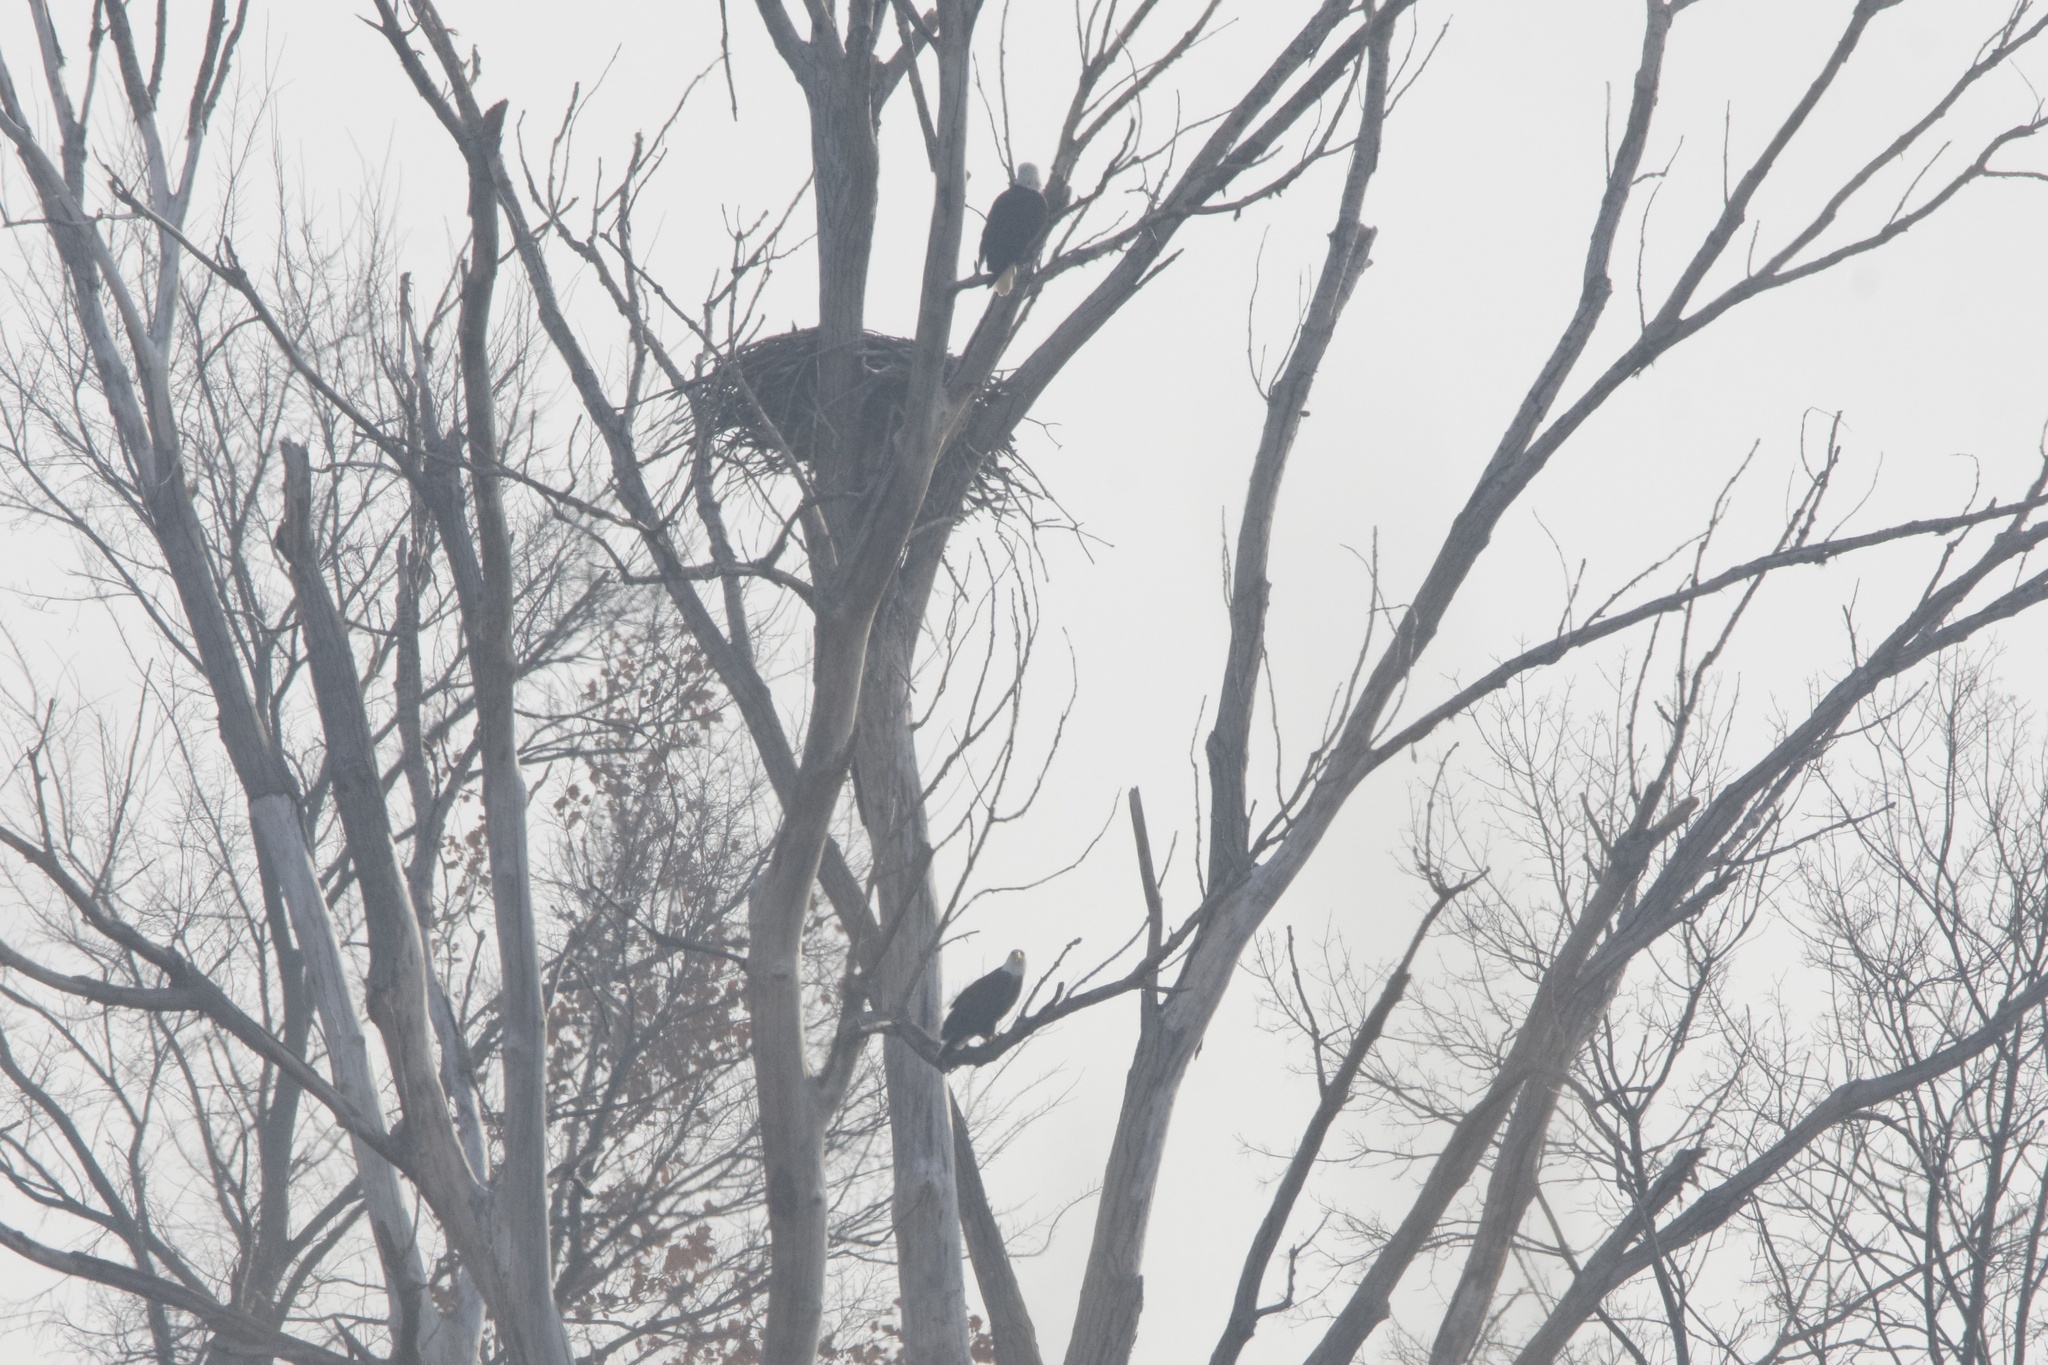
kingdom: Animalia
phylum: Chordata
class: Aves
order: Accipitriformes
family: Accipitridae
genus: Haliaeetus
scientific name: Haliaeetus leucocephalus
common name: Bald eagle
